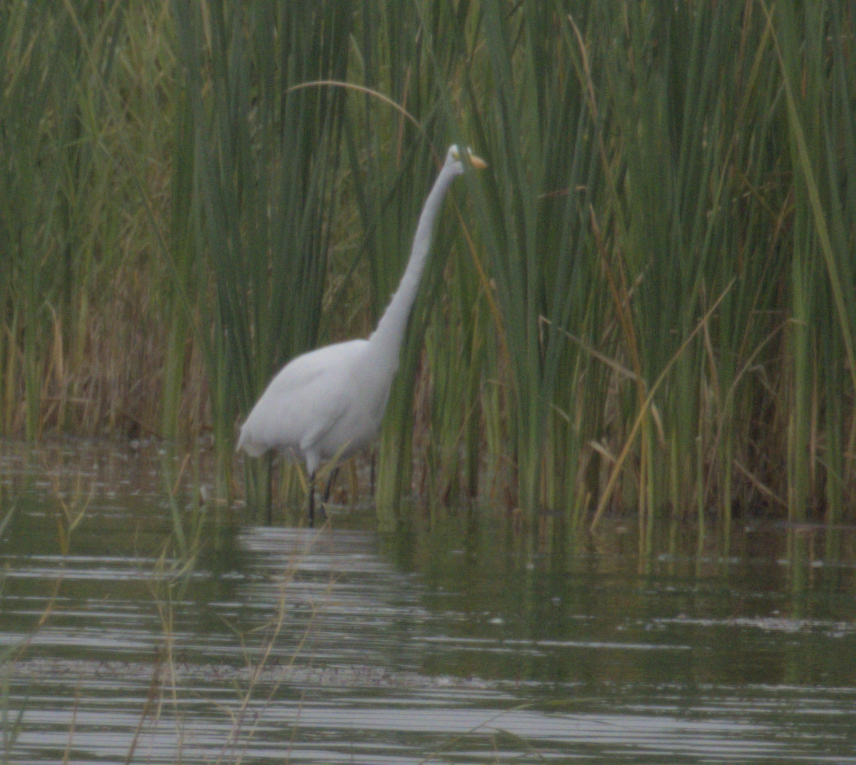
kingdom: Animalia
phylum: Chordata
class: Aves
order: Pelecaniformes
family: Ardeidae
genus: Ardea
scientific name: Ardea alba
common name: Great egret
